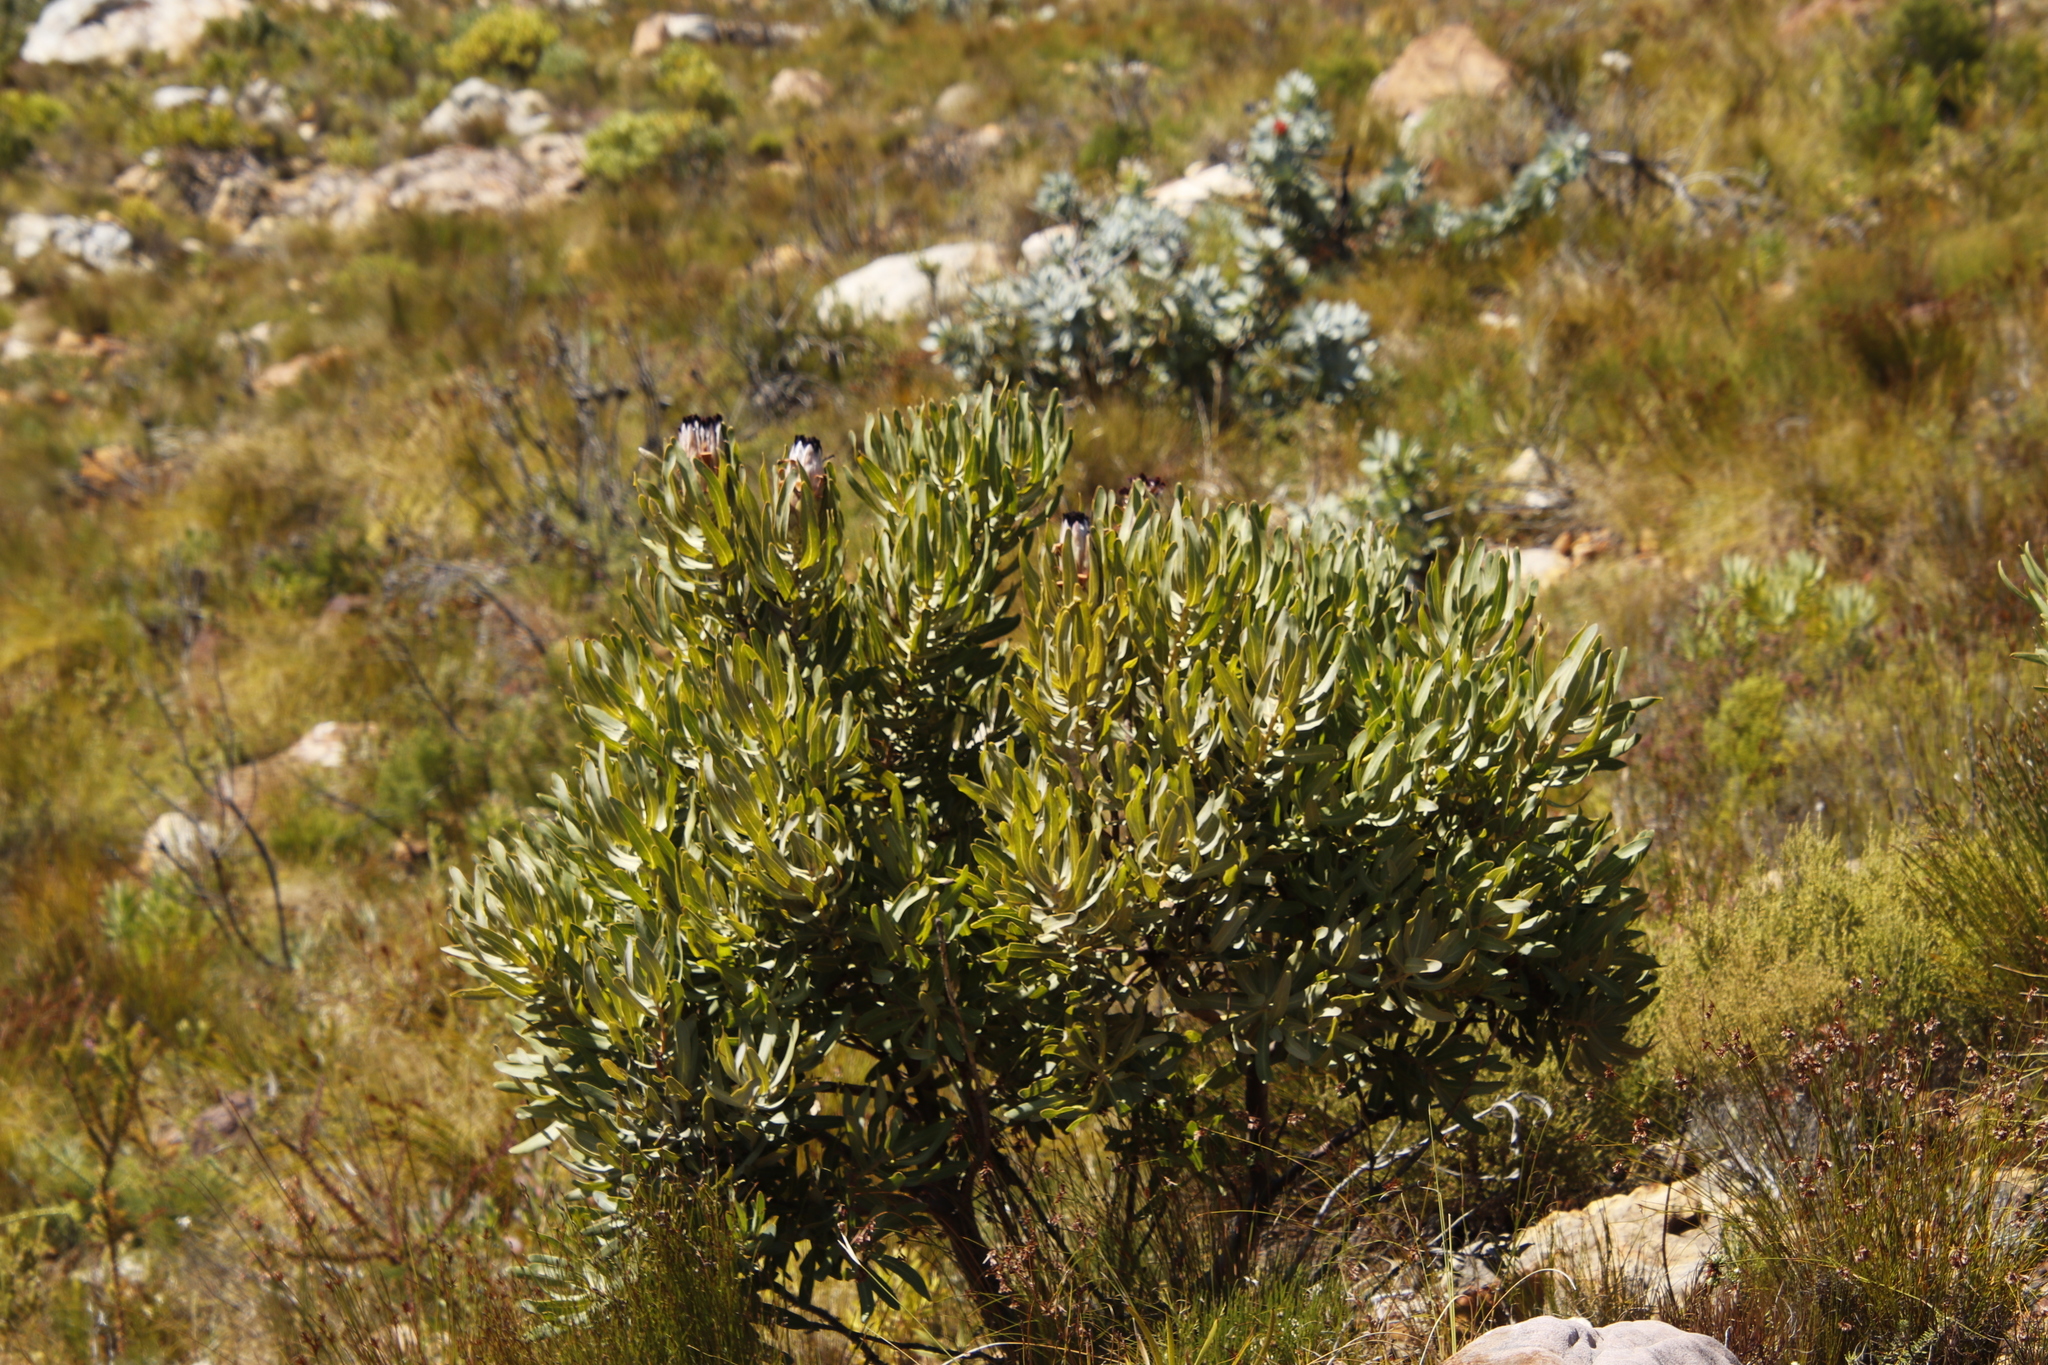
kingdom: Plantae
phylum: Tracheophyta
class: Magnoliopsida
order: Proteales
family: Proteaceae
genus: Protea
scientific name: Protea laurifolia
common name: Grey-leaf sugarbsh
